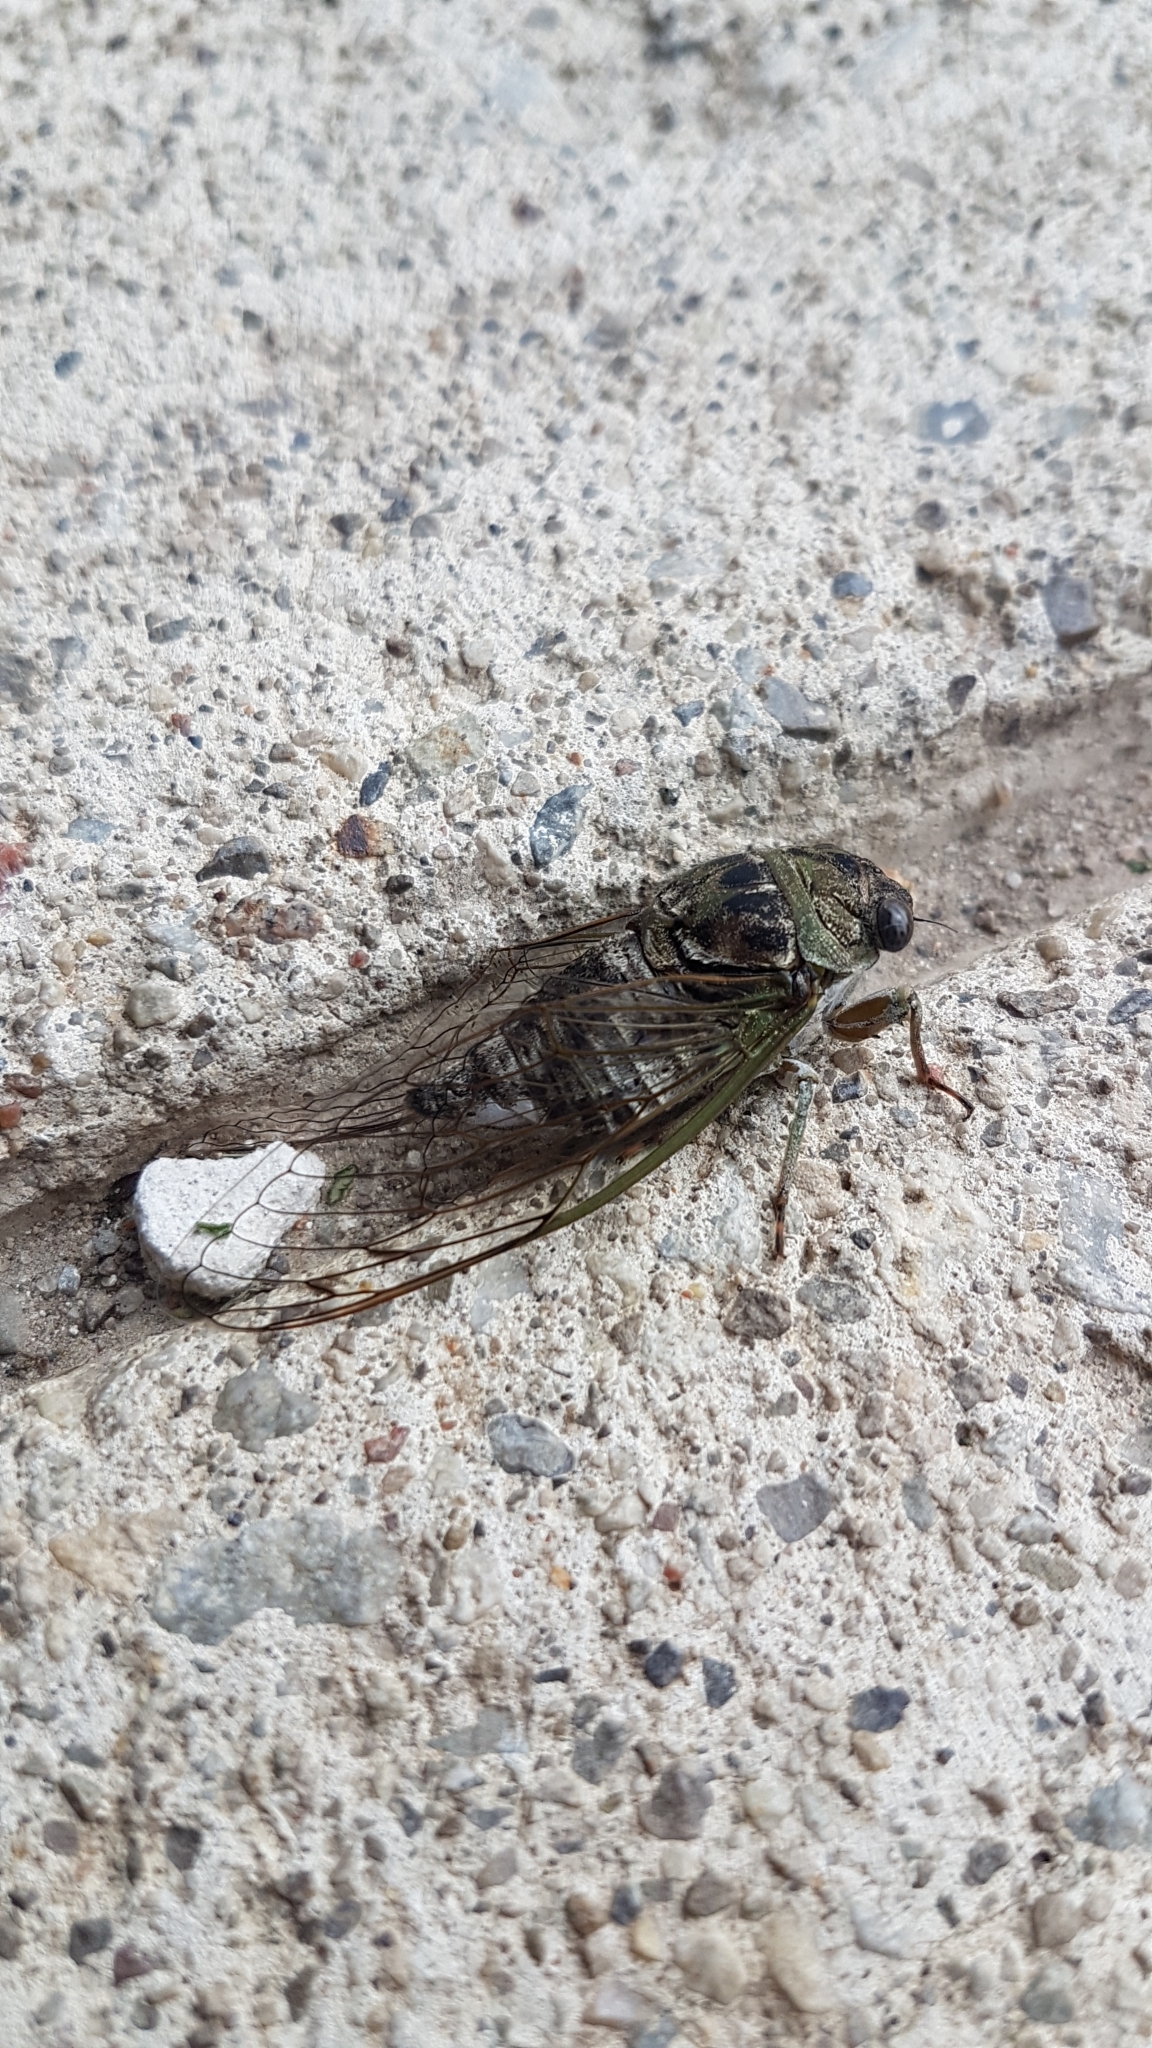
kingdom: Animalia
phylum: Arthropoda
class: Insecta
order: Hemiptera
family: Cicadidae
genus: Neotibicen
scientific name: Neotibicen canicularis
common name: God-day cicada
